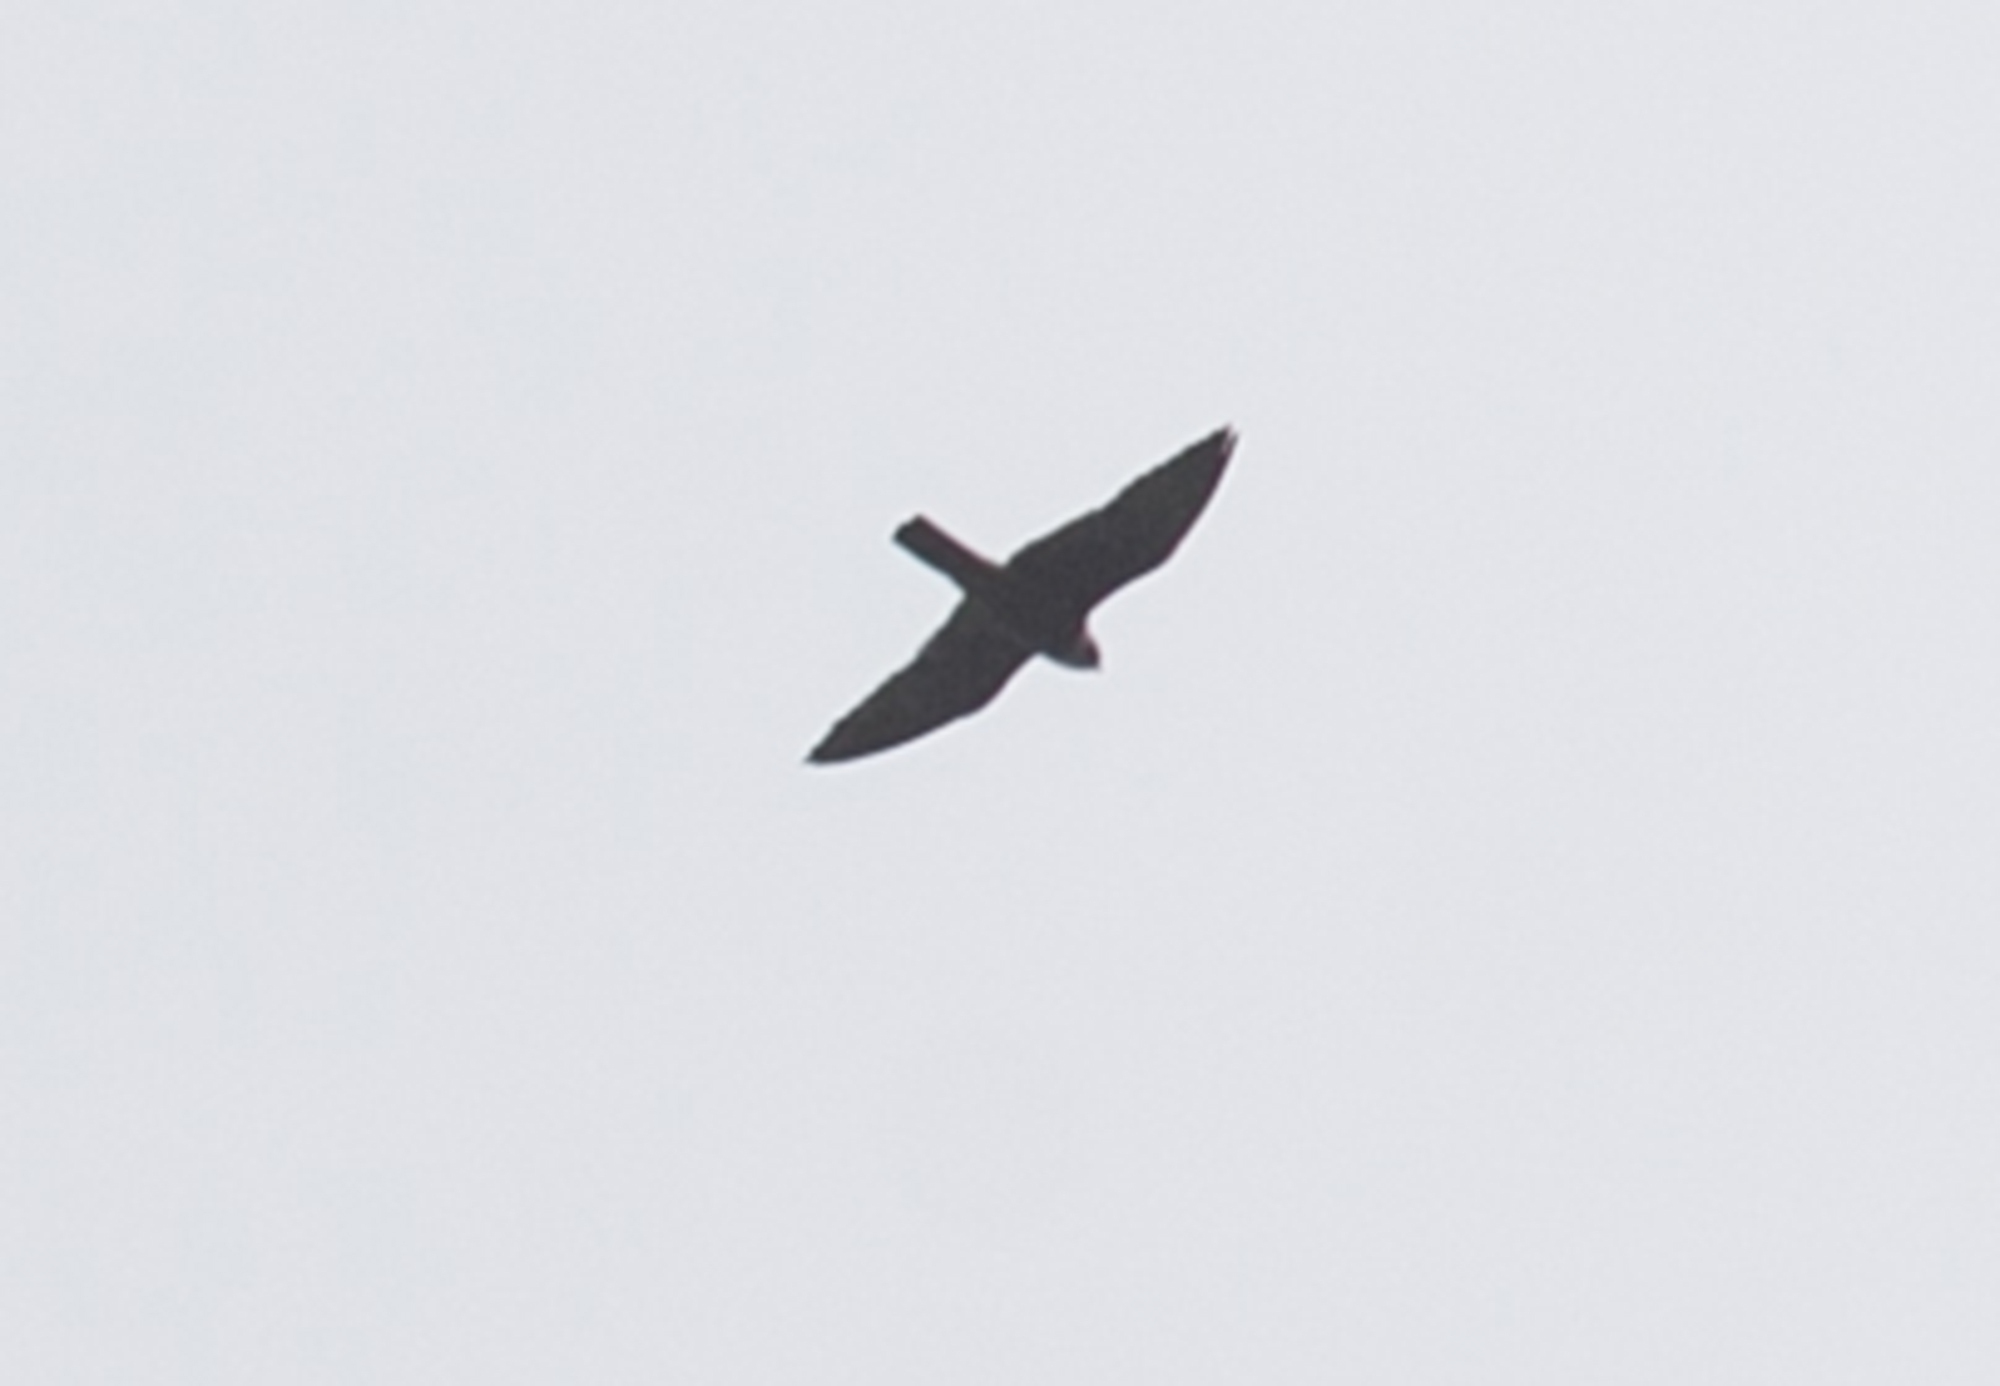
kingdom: Animalia
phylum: Chordata
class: Aves
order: Falconiformes
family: Falconidae
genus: Falco
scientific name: Falco tinnunculus
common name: Common kestrel
